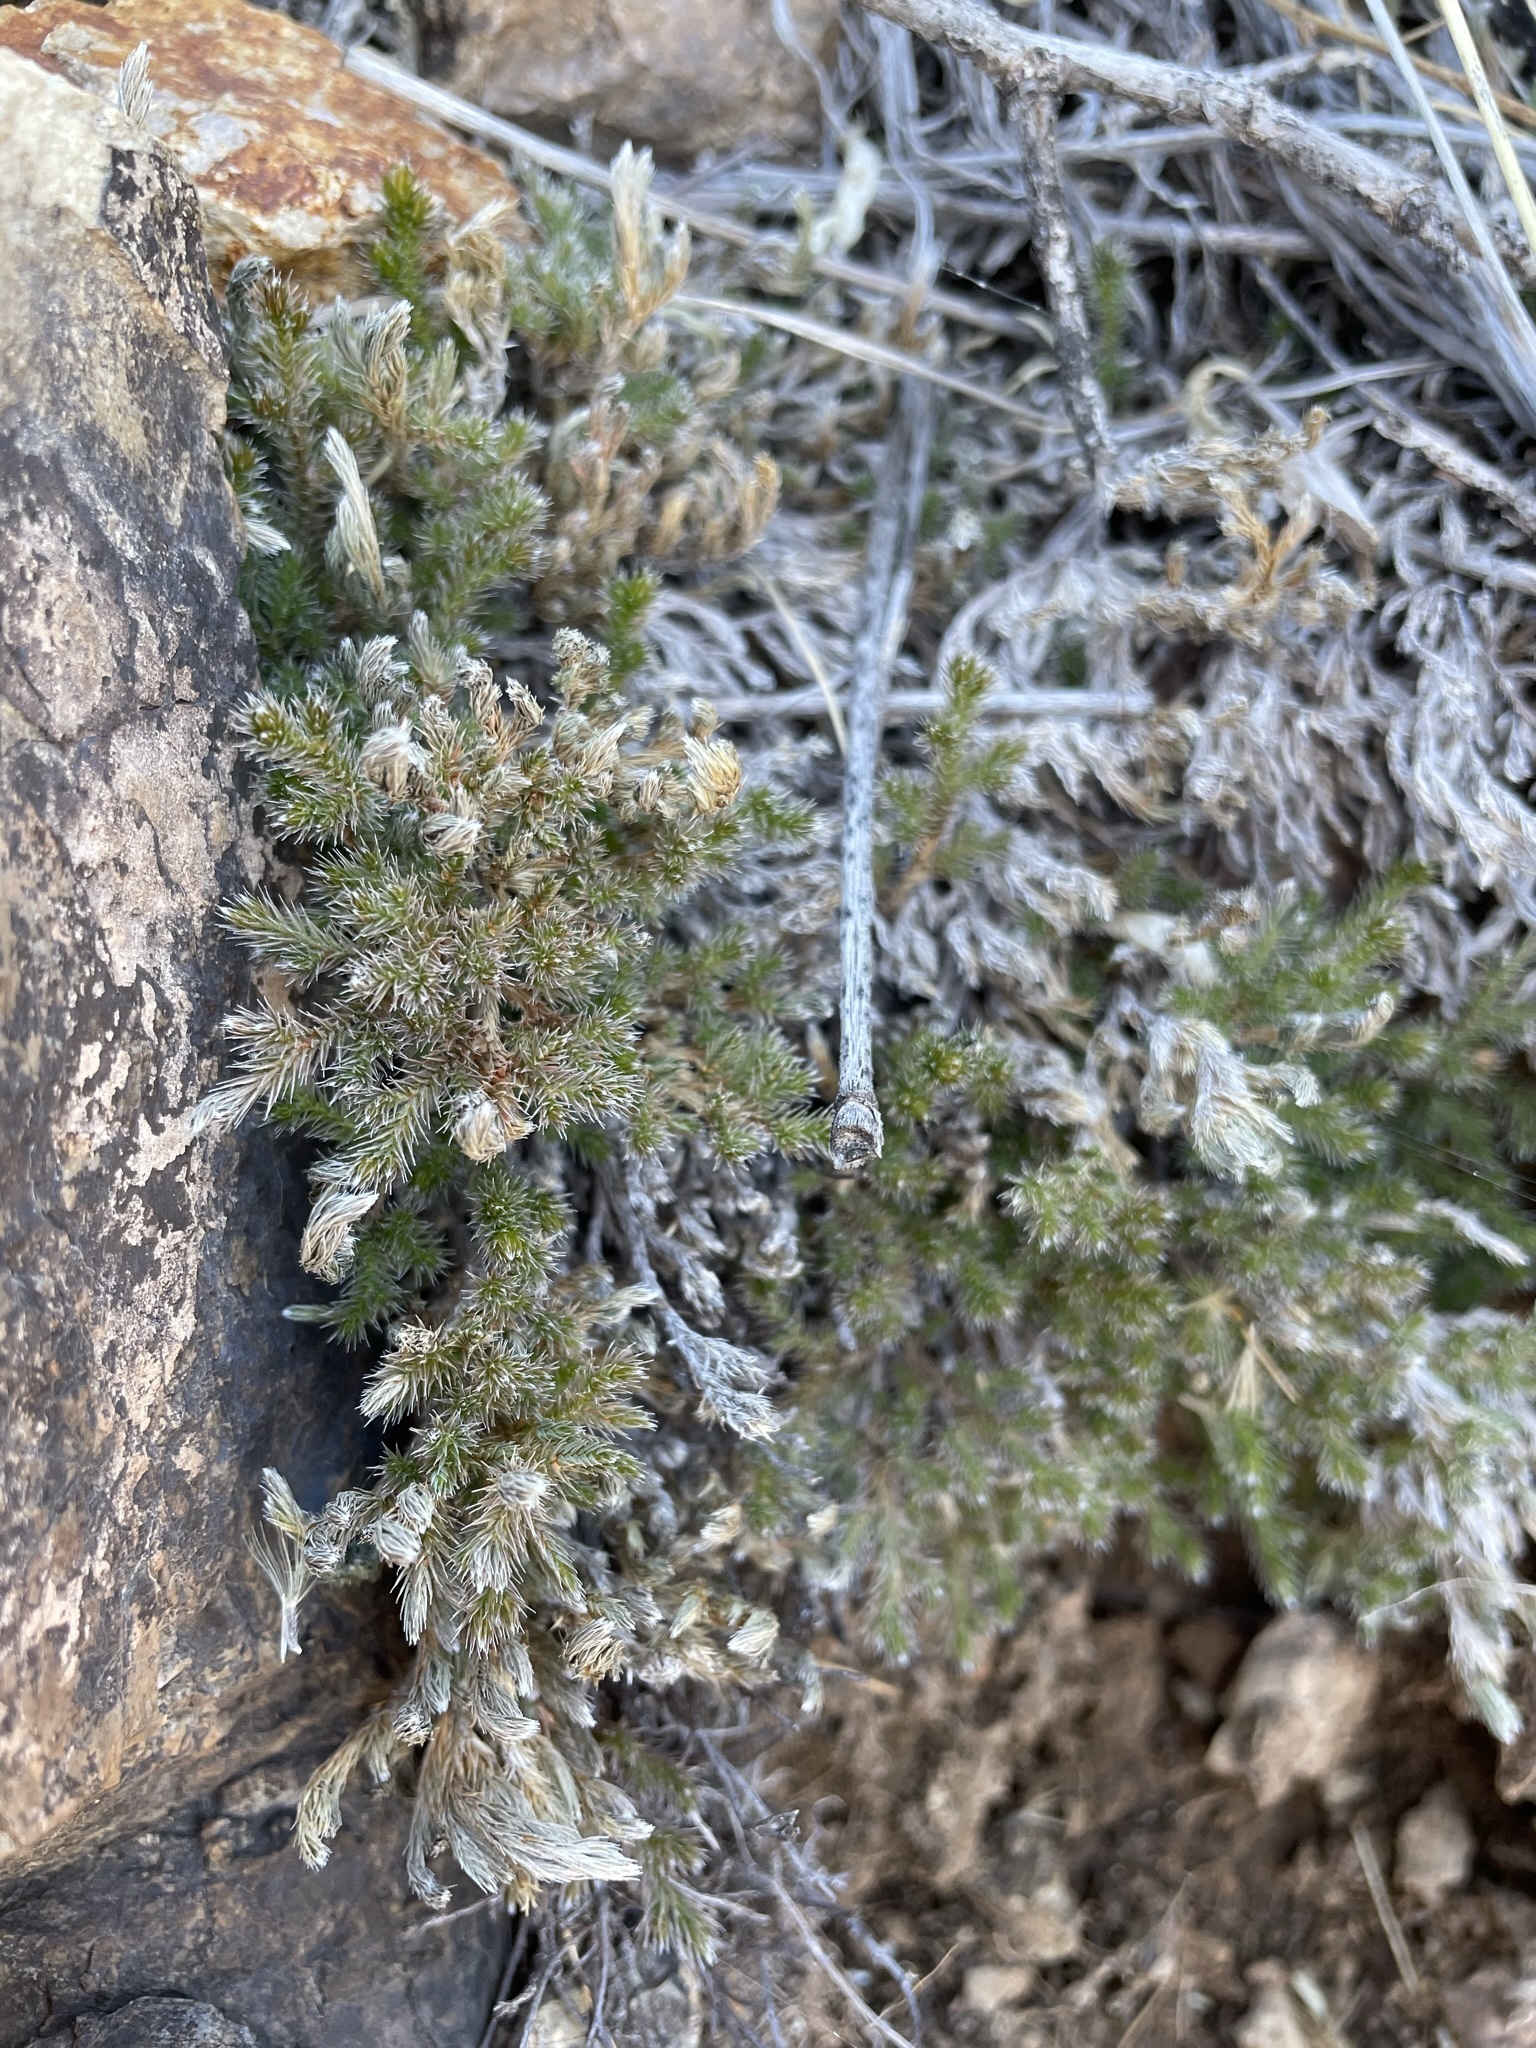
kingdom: Plantae
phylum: Tracheophyta
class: Lycopodiopsida
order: Selaginellales
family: Selaginellaceae
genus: Selaginella
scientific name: Selaginella rupincola
